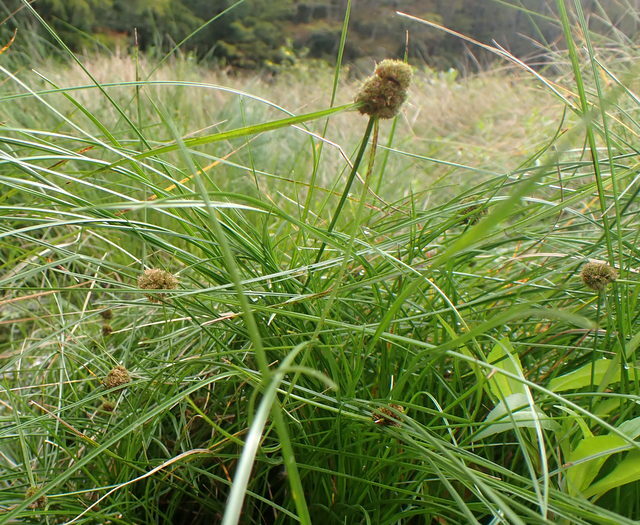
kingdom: Plantae
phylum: Tracheophyta
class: Liliopsida
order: Poales
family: Cyperaceae
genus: Cyperus
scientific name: Cyperus blepharoleptos
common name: Cuban bulrush
